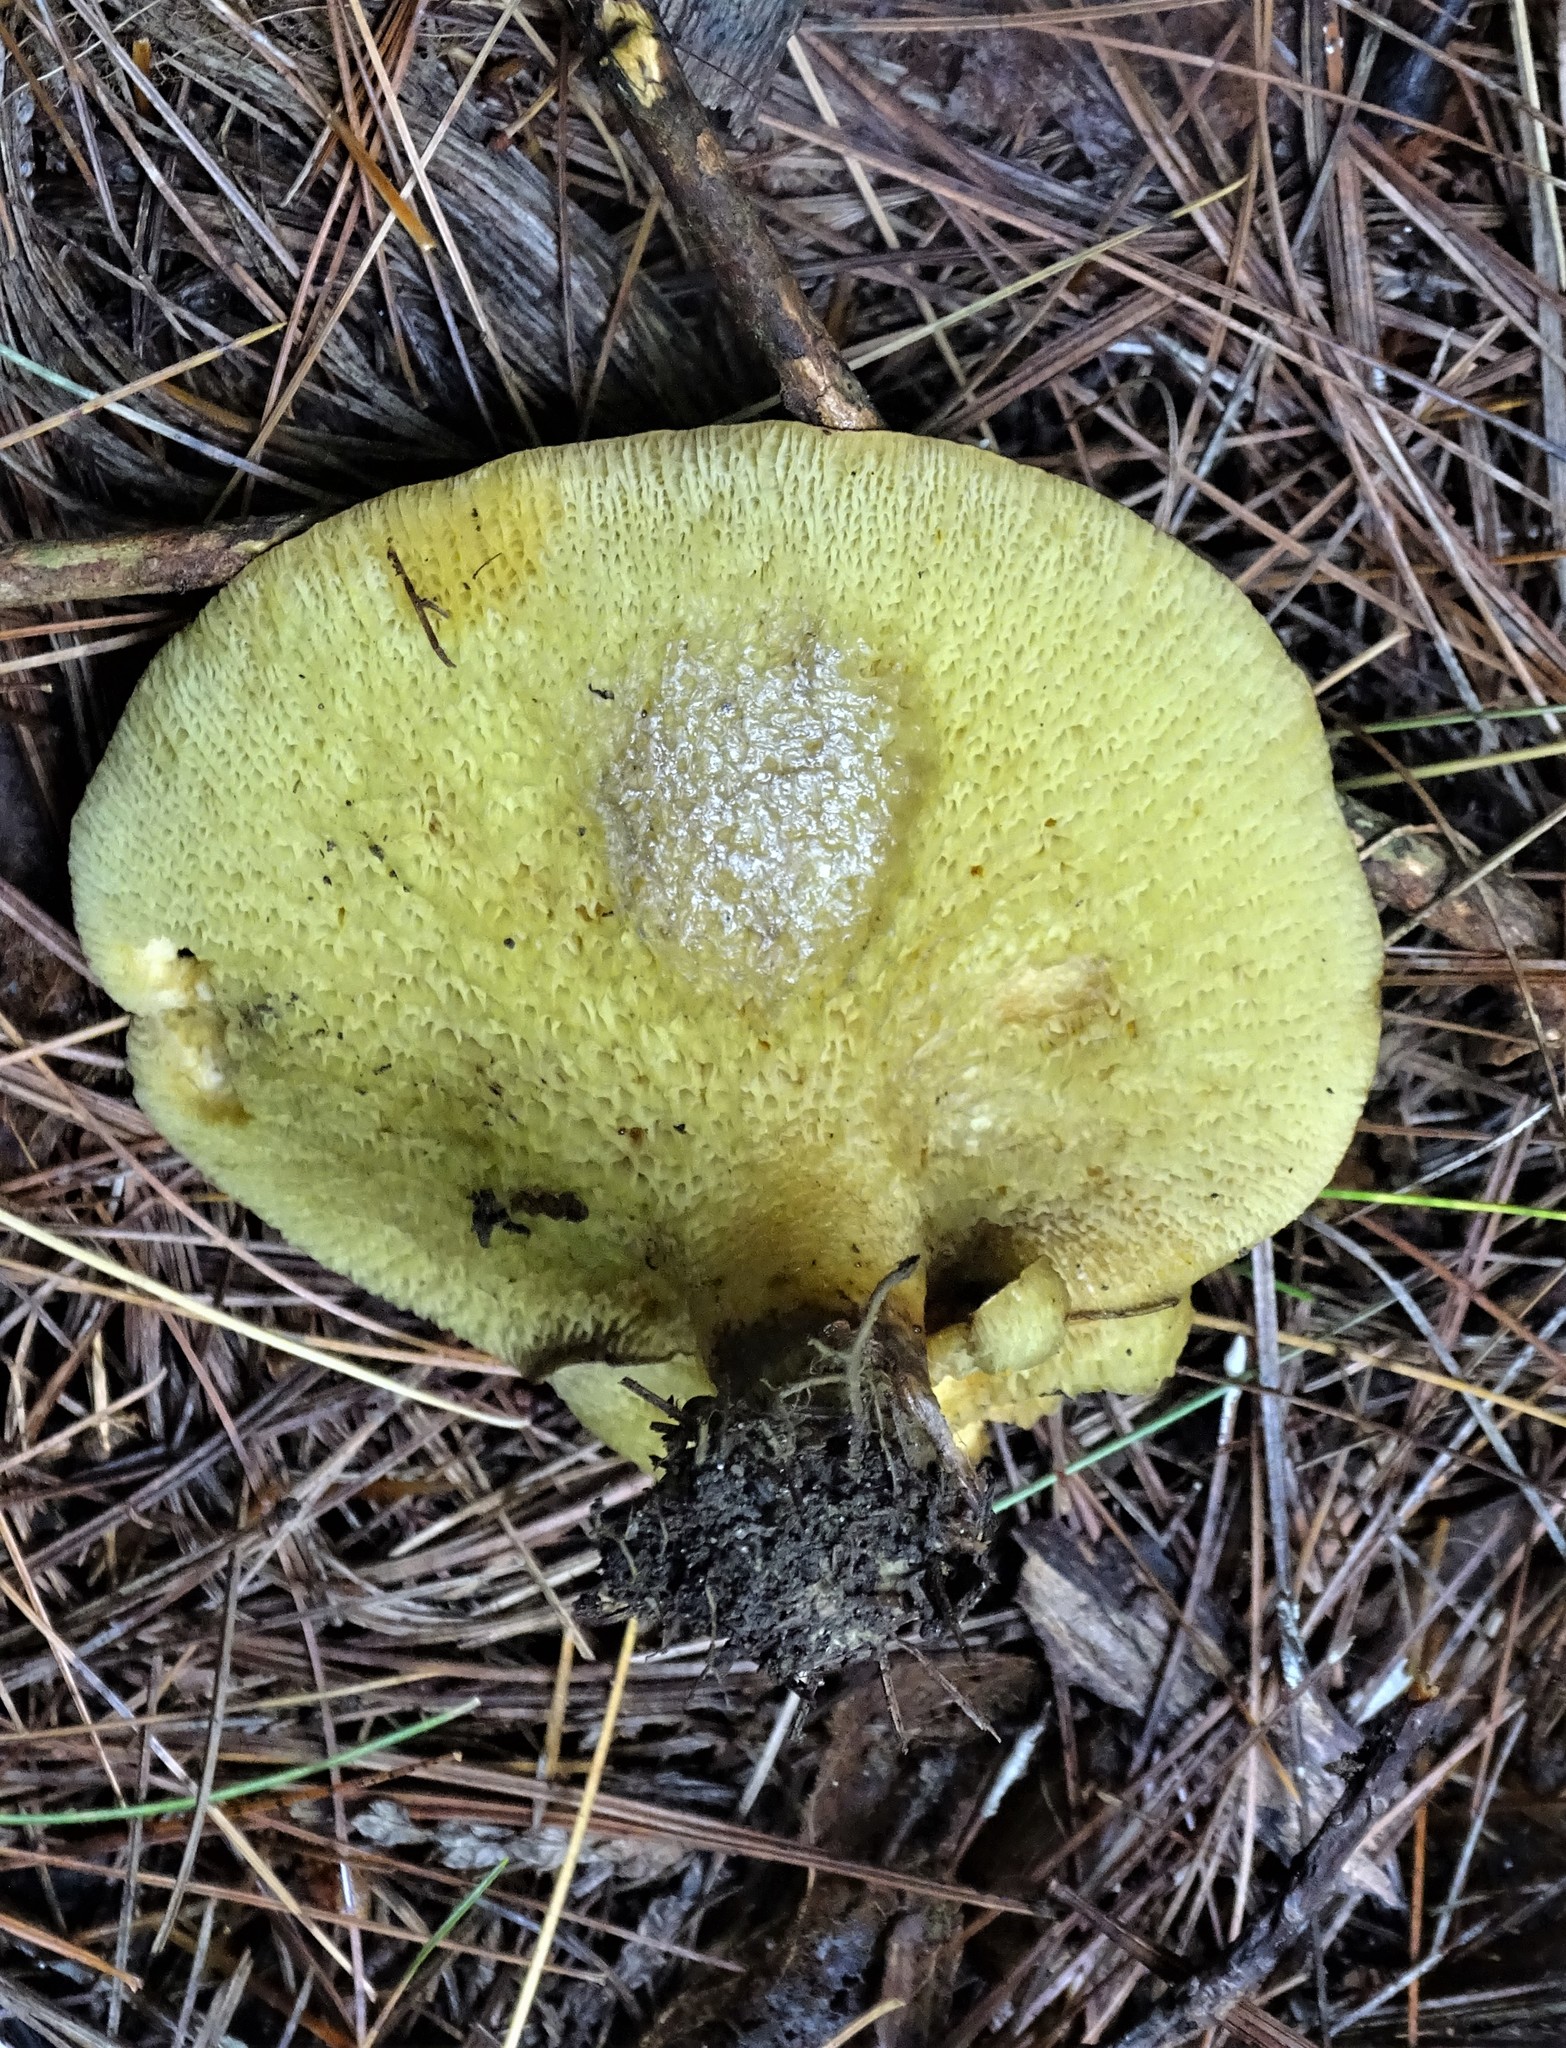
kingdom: Fungi
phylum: Basidiomycota
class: Agaricomycetes
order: Boletales
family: Boletinellaceae
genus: Boletinellus
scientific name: Boletinellus merulioides
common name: Ash tree bolete
